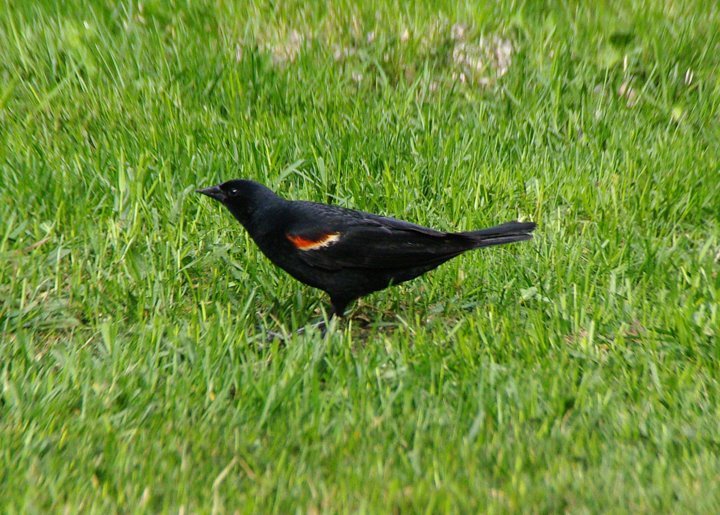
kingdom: Animalia
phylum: Chordata
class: Aves
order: Passeriformes
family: Icteridae
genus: Agelaius
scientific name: Agelaius phoeniceus
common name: Red-winged blackbird
